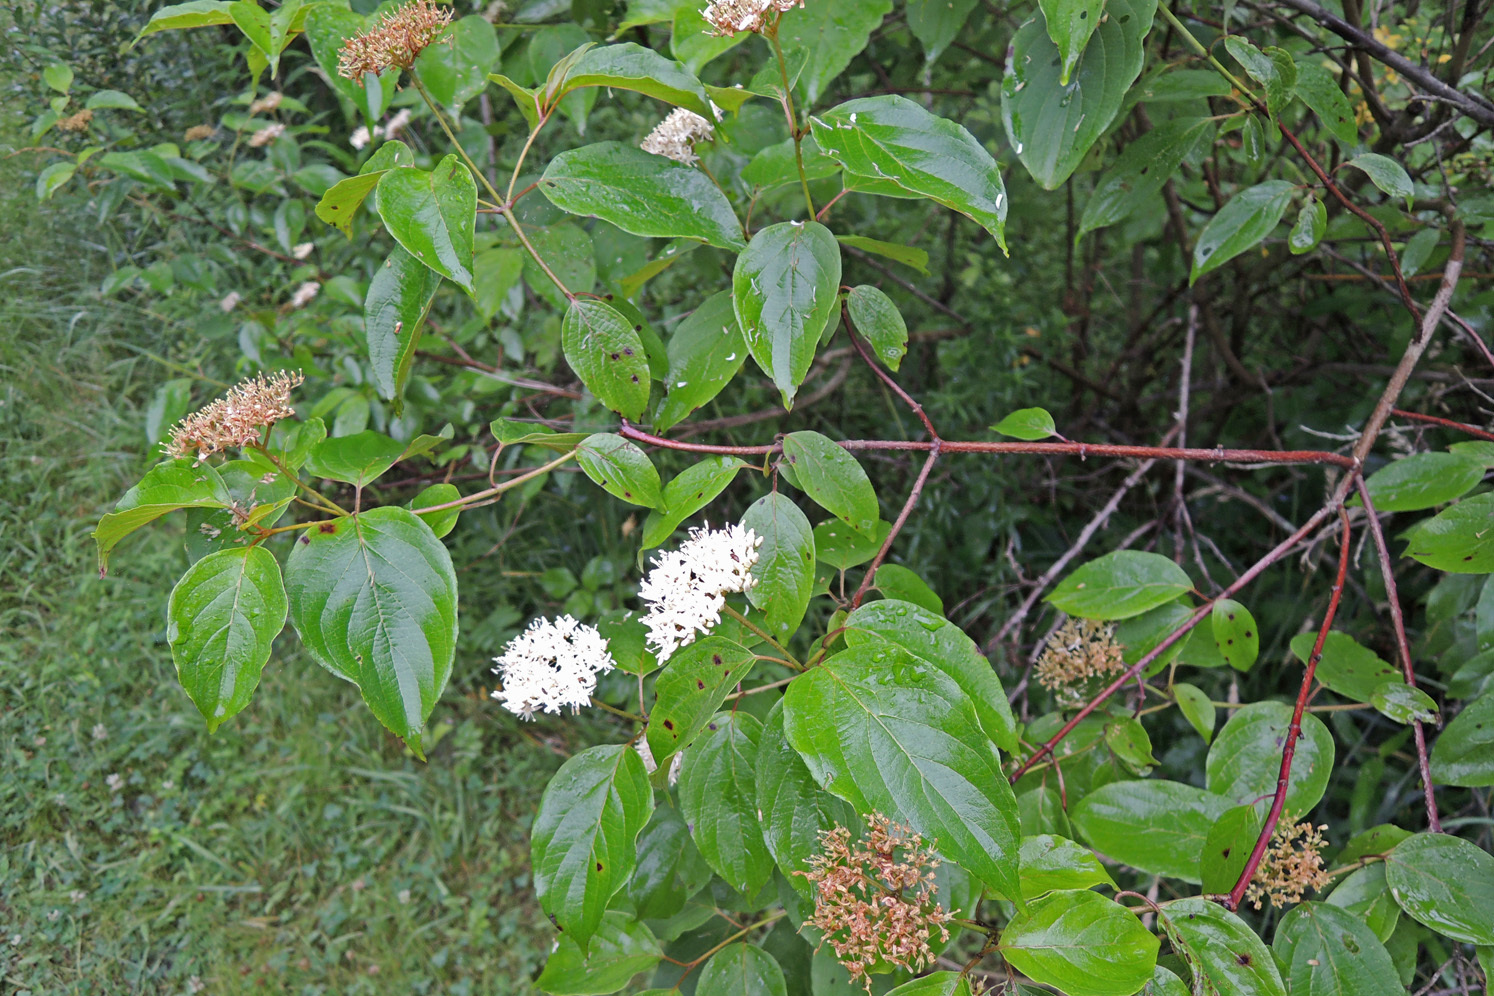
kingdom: Plantae
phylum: Tracheophyta
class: Magnoliopsida
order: Cornales
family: Cornaceae
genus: Cornus
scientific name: Cornus sericea
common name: Red-osier dogwood
